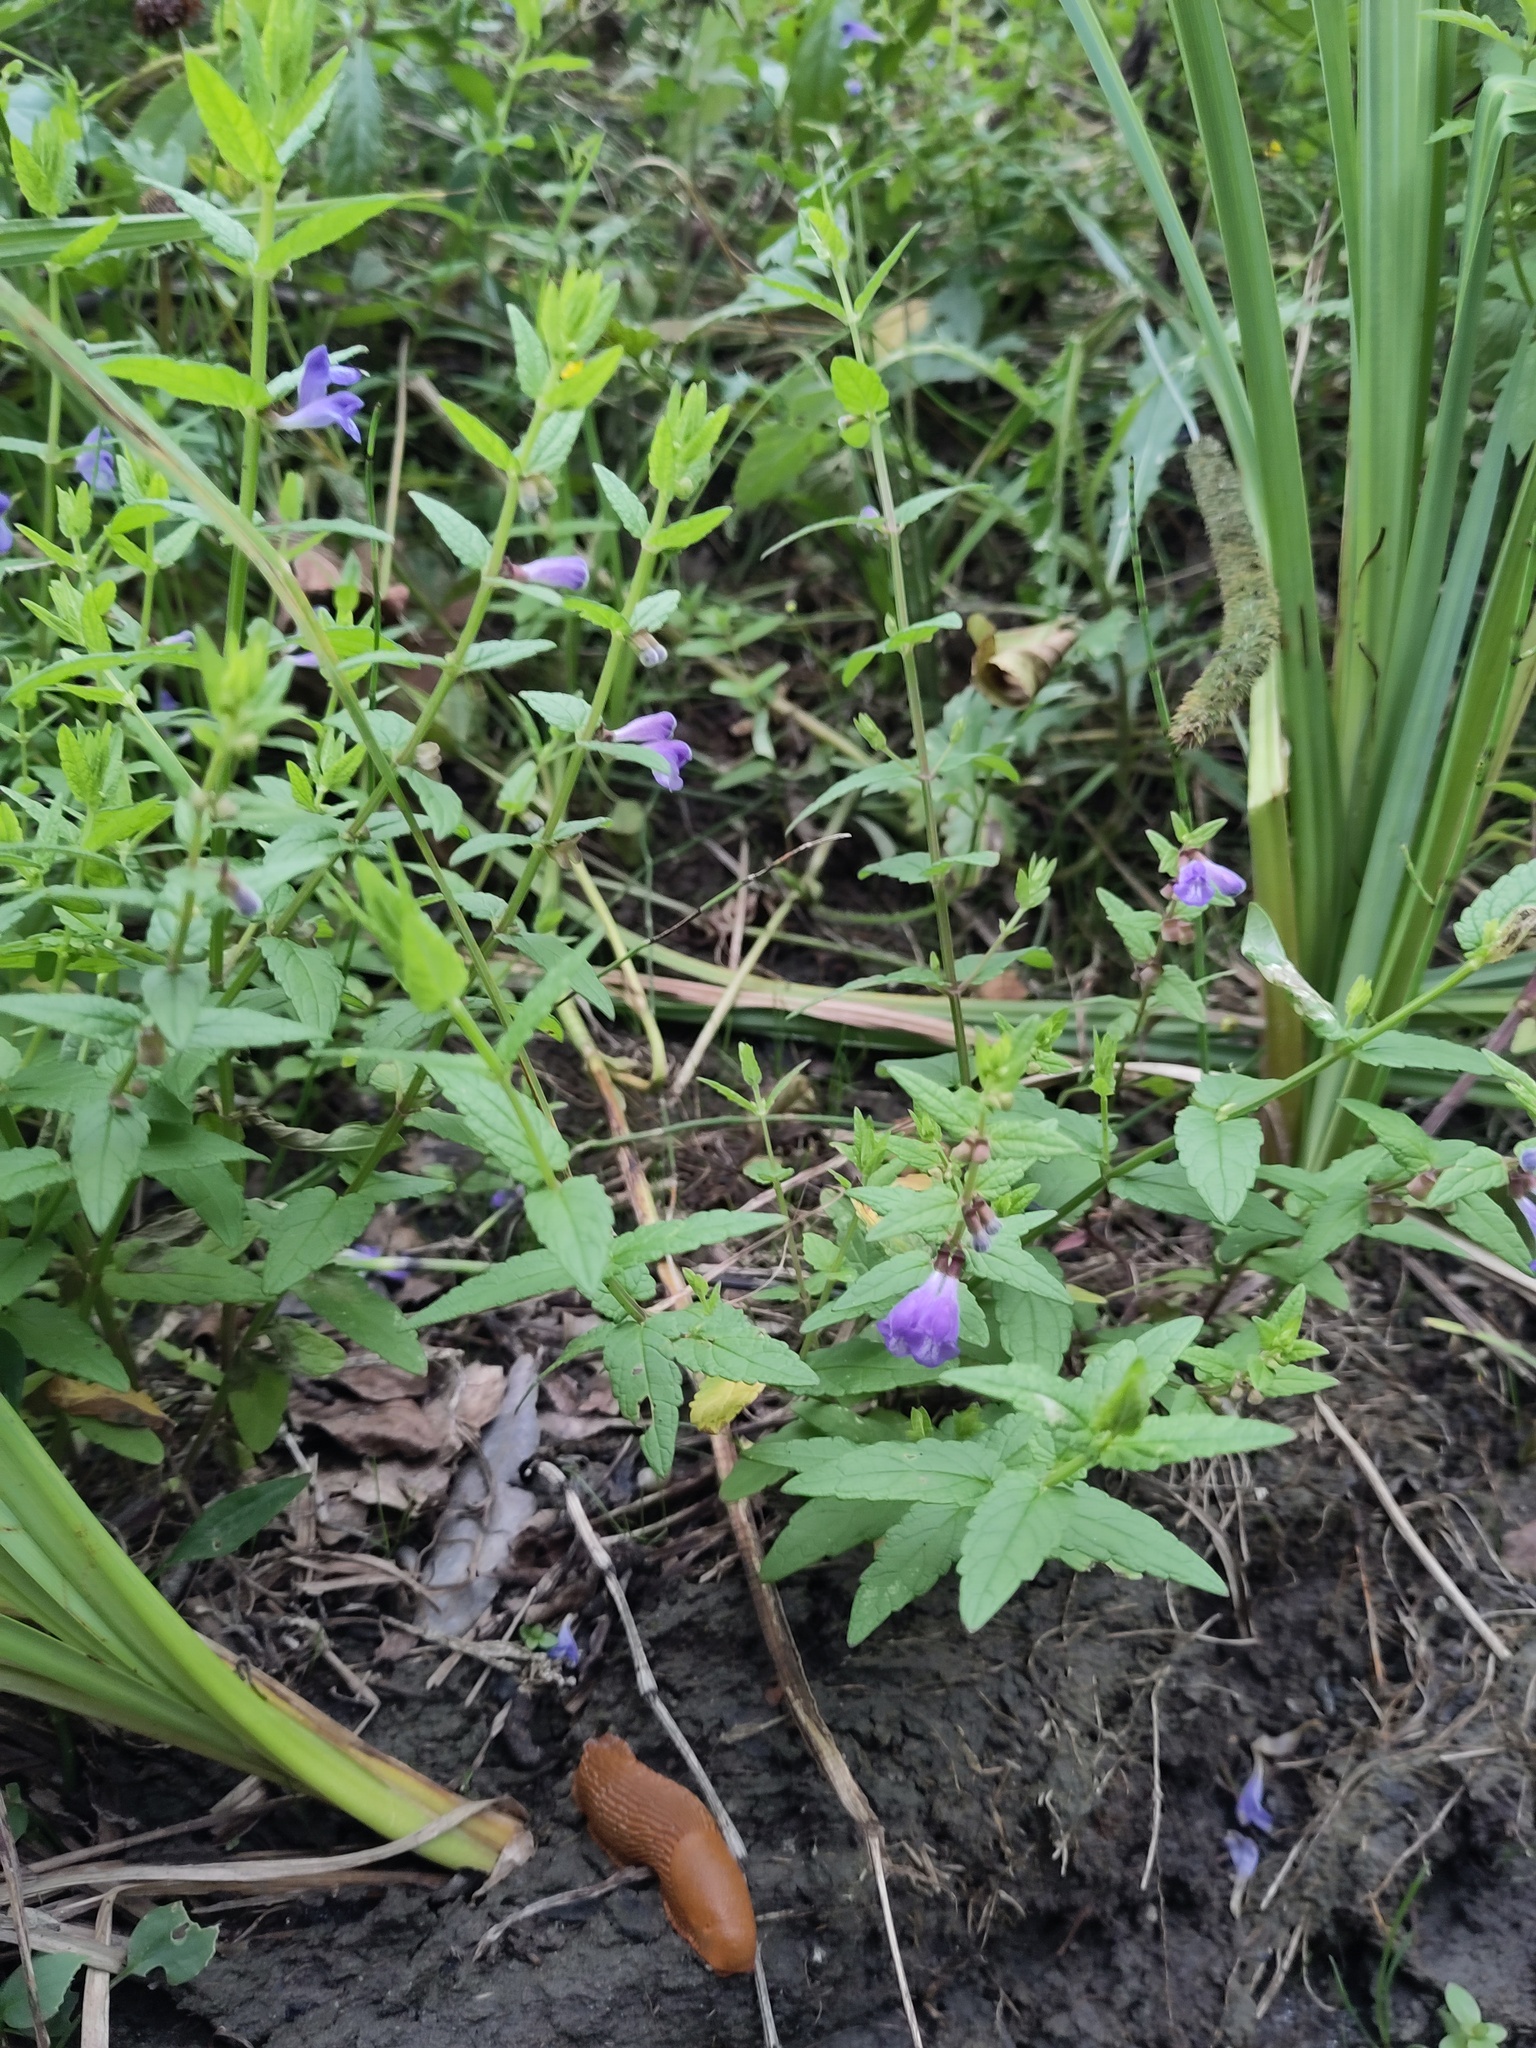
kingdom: Plantae
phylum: Tracheophyta
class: Magnoliopsida
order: Lamiales
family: Lamiaceae
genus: Scutellaria
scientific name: Scutellaria galericulata
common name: Skullcap
